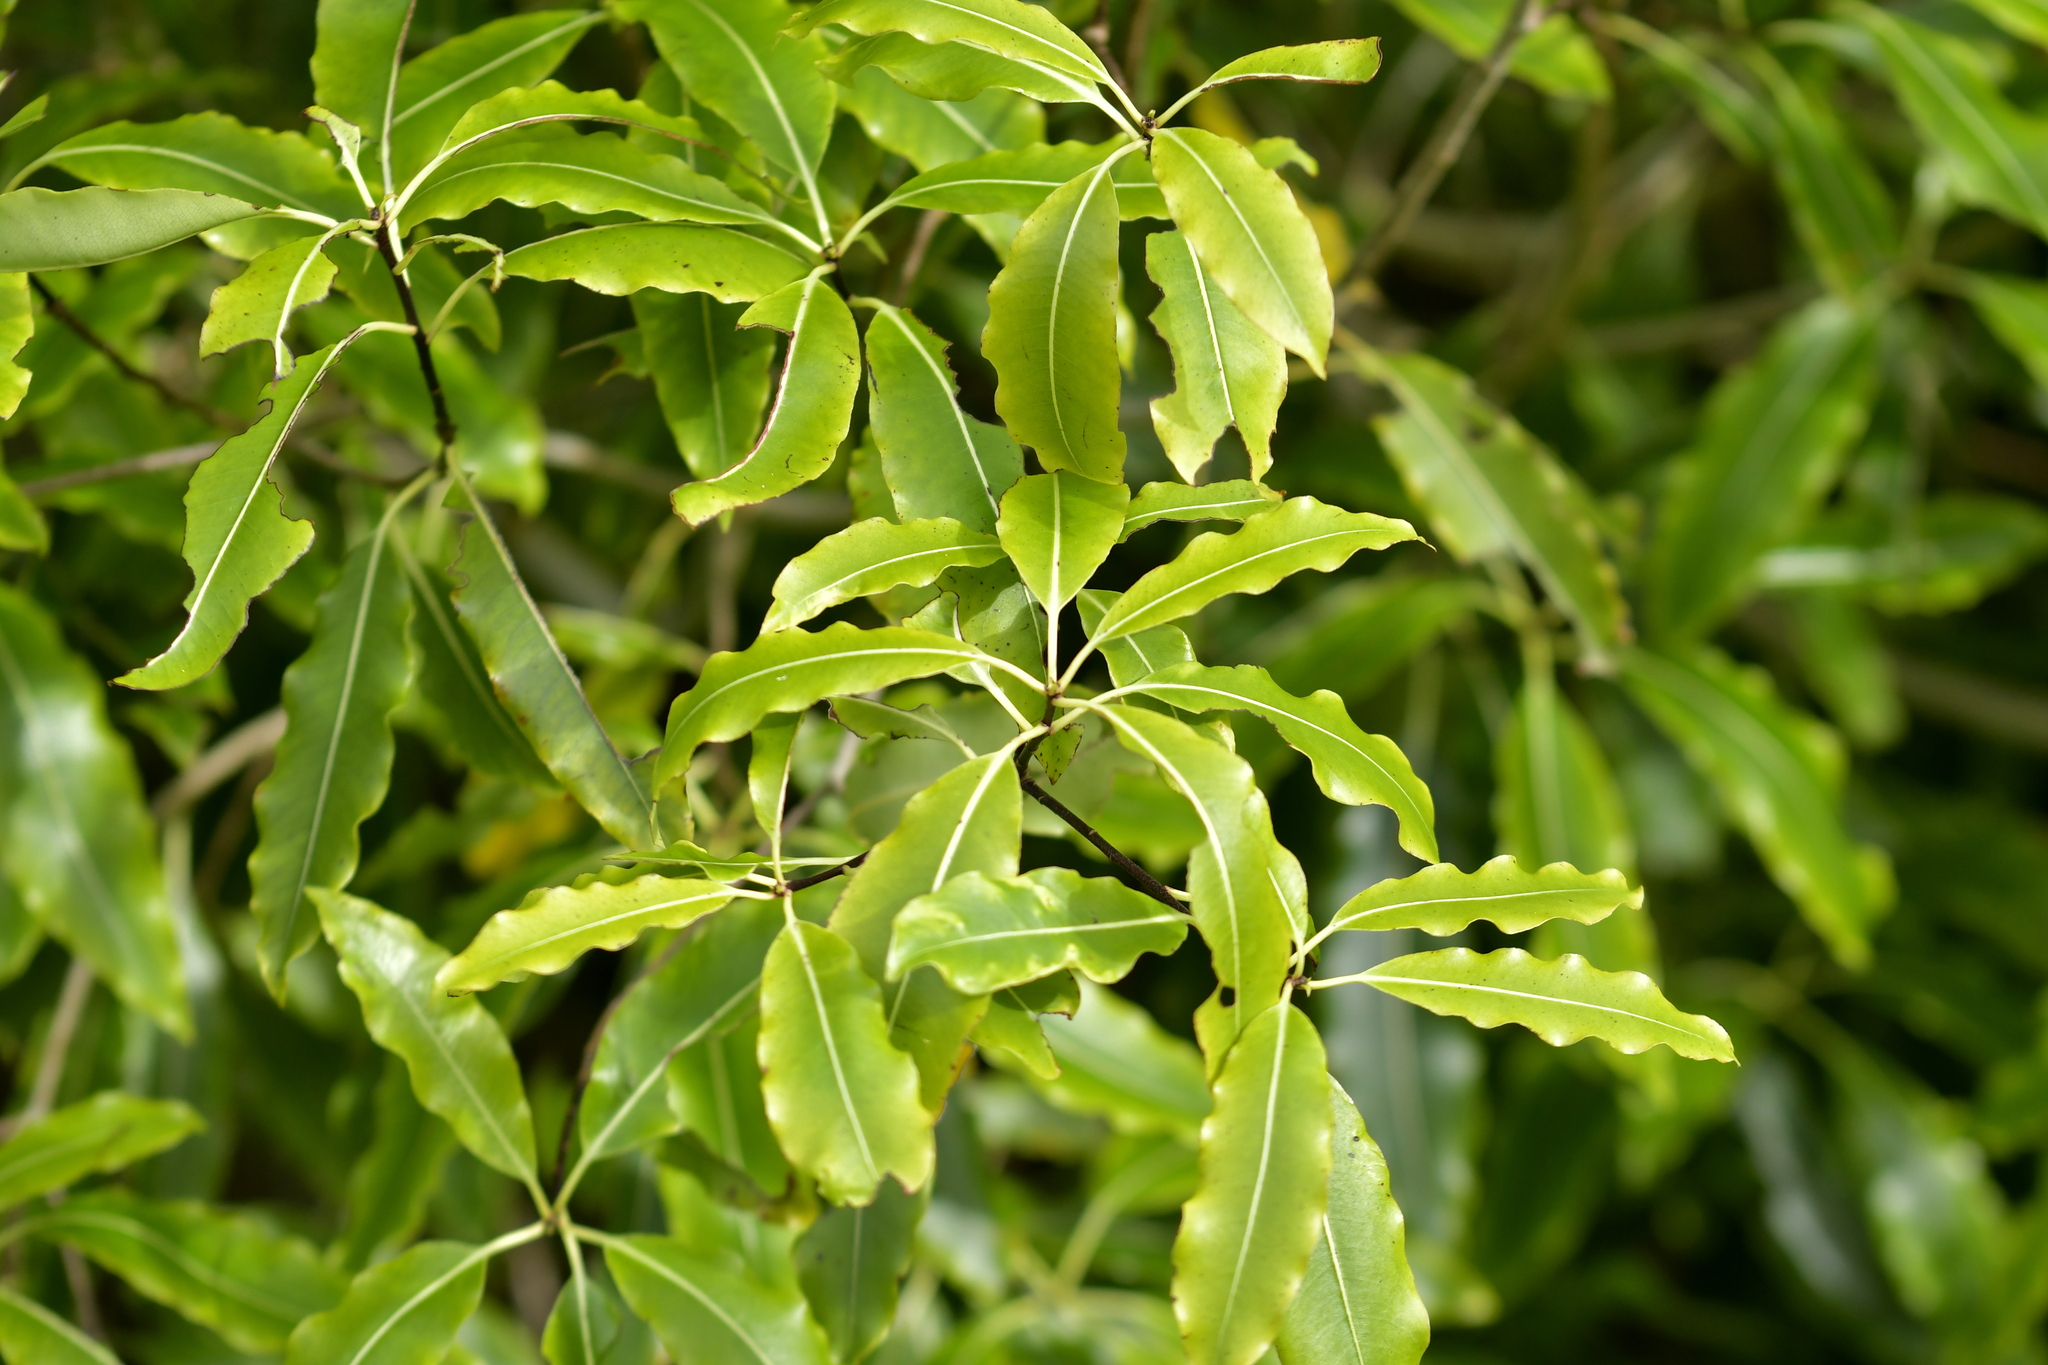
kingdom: Plantae
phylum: Tracheophyta
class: Magnoliopsida
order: Apiales
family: Pittosporaceae
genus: Pittosporum
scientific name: Pittosporum eugenioides
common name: Lemonwood
